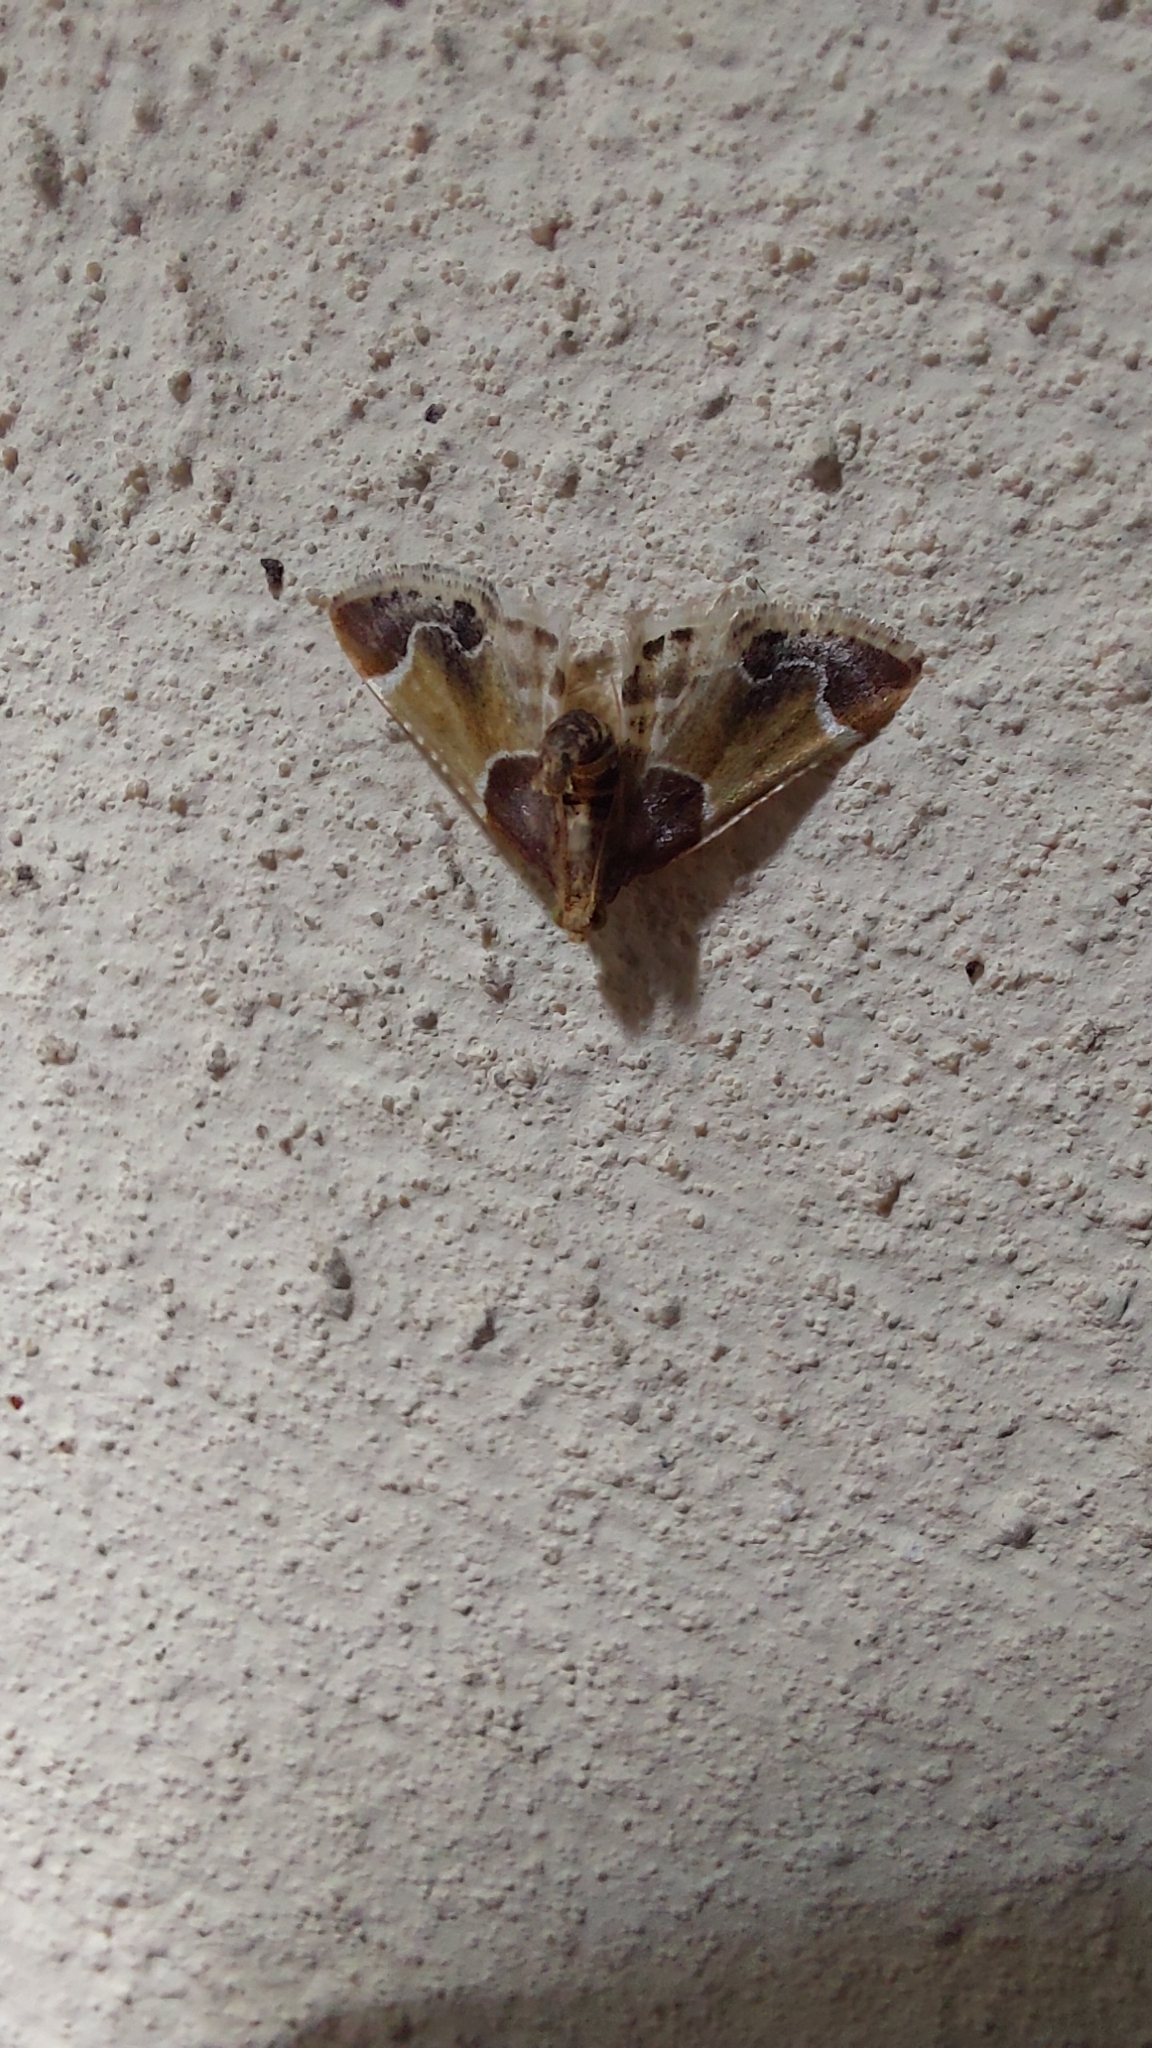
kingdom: Animalia
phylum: Arthropoda
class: Insecta
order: Lepidoptera
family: Pyralidae
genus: Pyralis
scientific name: Pyralis farinalis
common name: Meal moth
